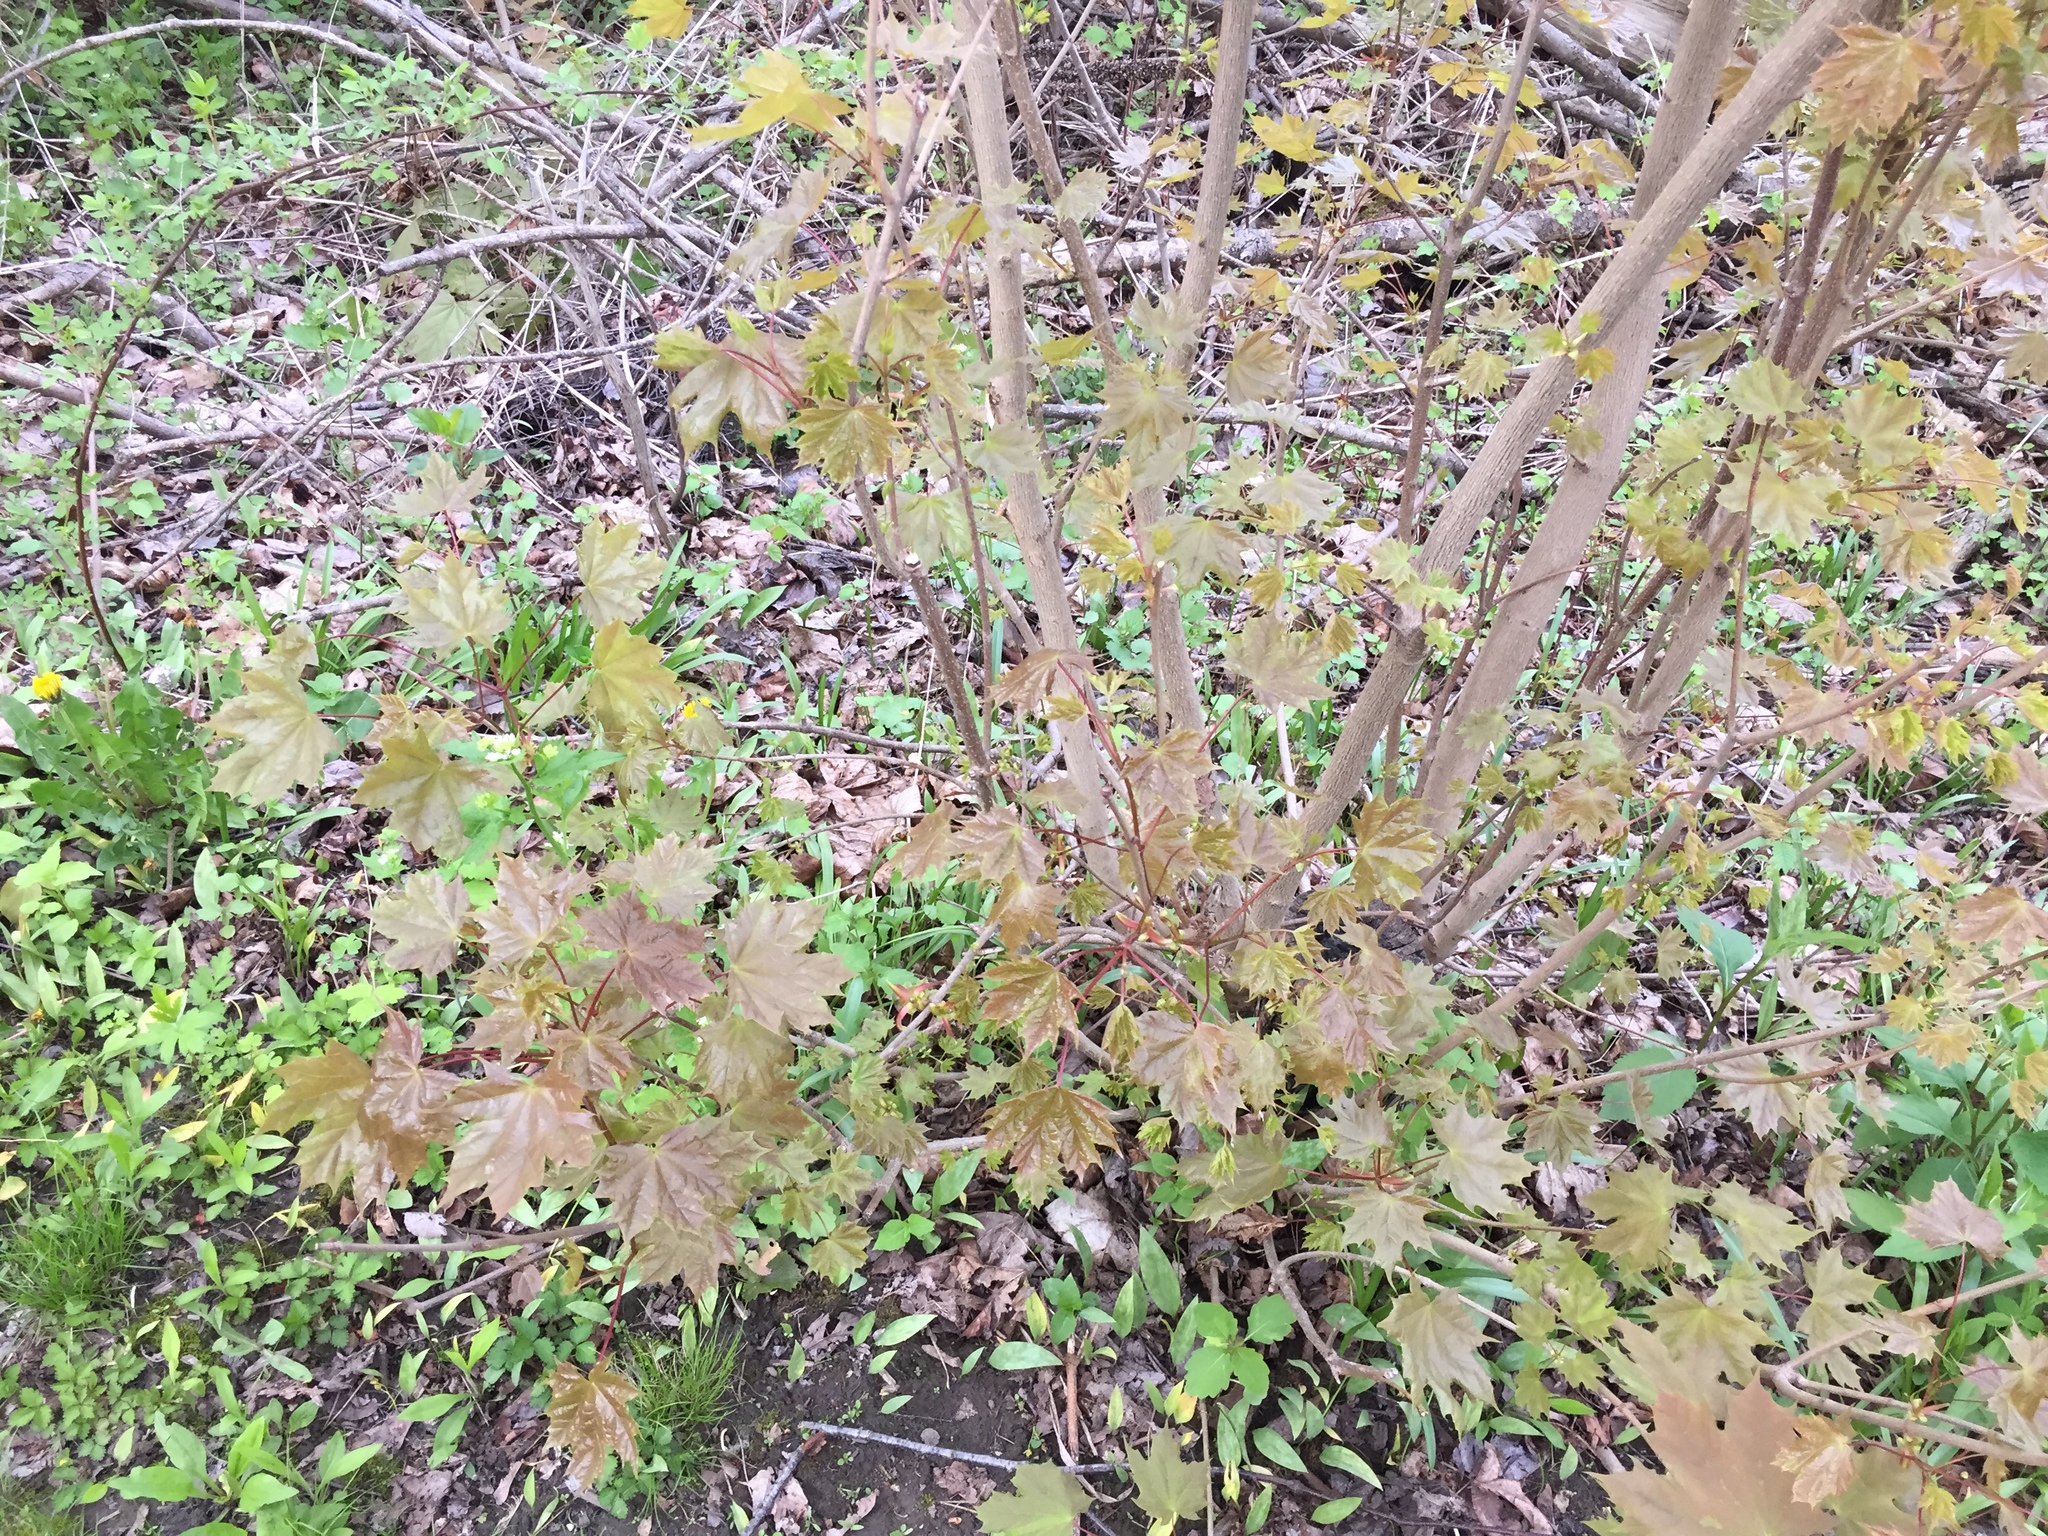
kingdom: Plantae
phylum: Tracheophyta
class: Magnoliopsida
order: Sapindales
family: Sapindaceae
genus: Acer
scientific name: Acer platanoides
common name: Norway maple
